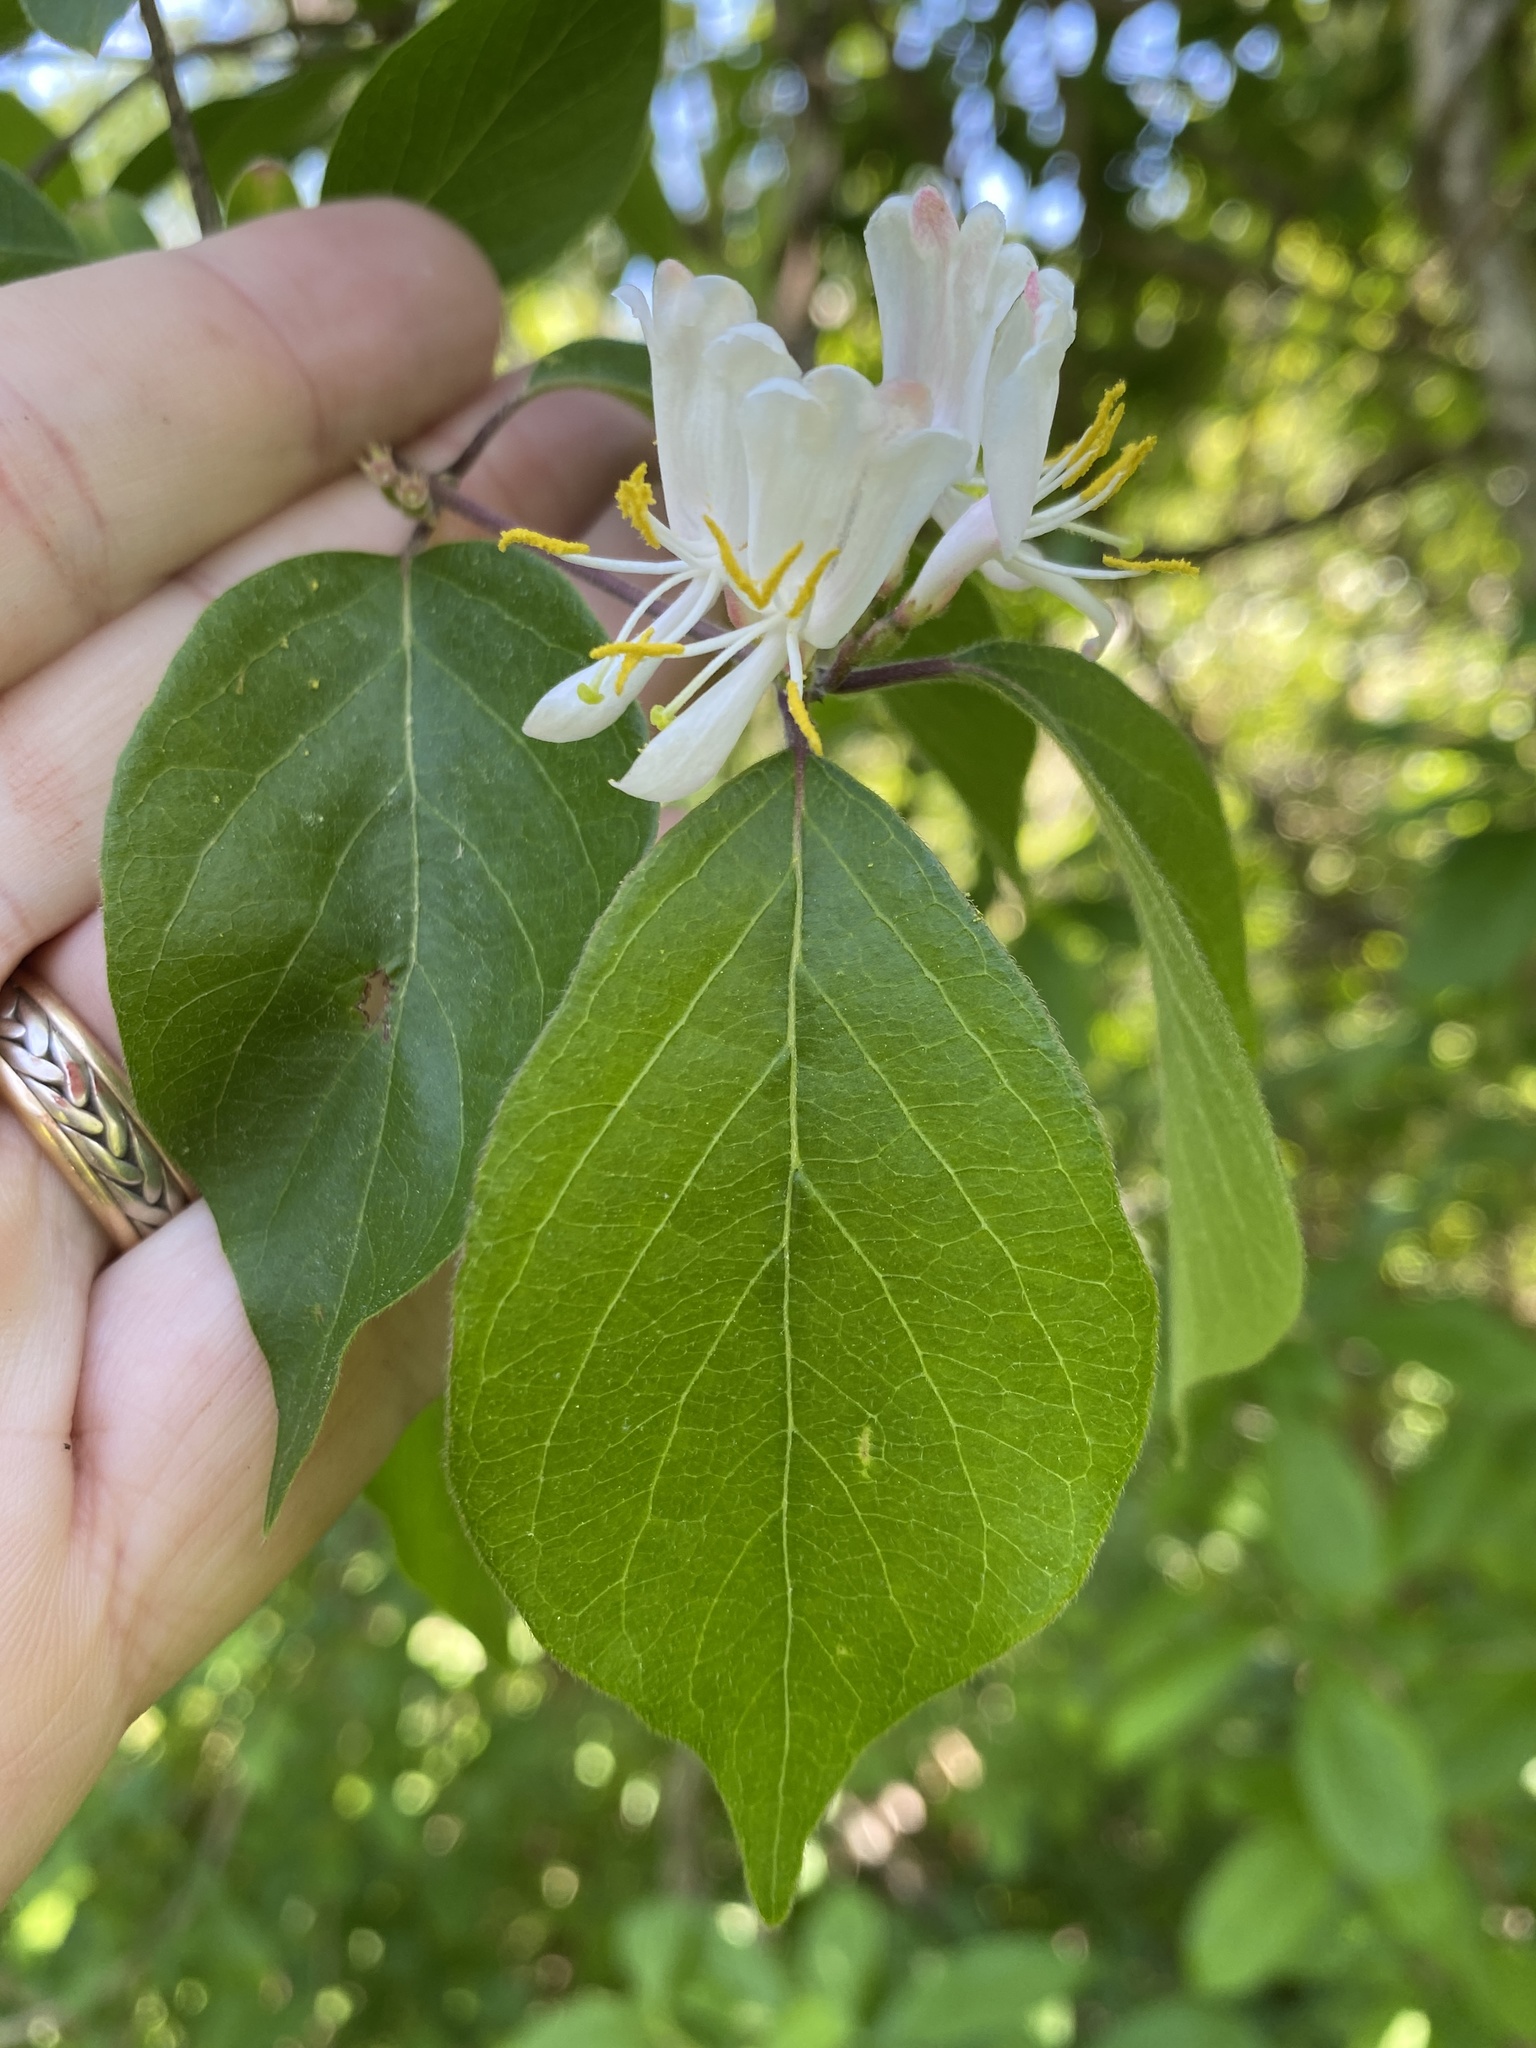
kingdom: Plantae
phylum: Tracheophyta
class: Magnoliopsida
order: Dipsacales
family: Caprifoliaceae
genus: Lonicera
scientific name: Lonicera maackii
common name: Amur honeysuckle
